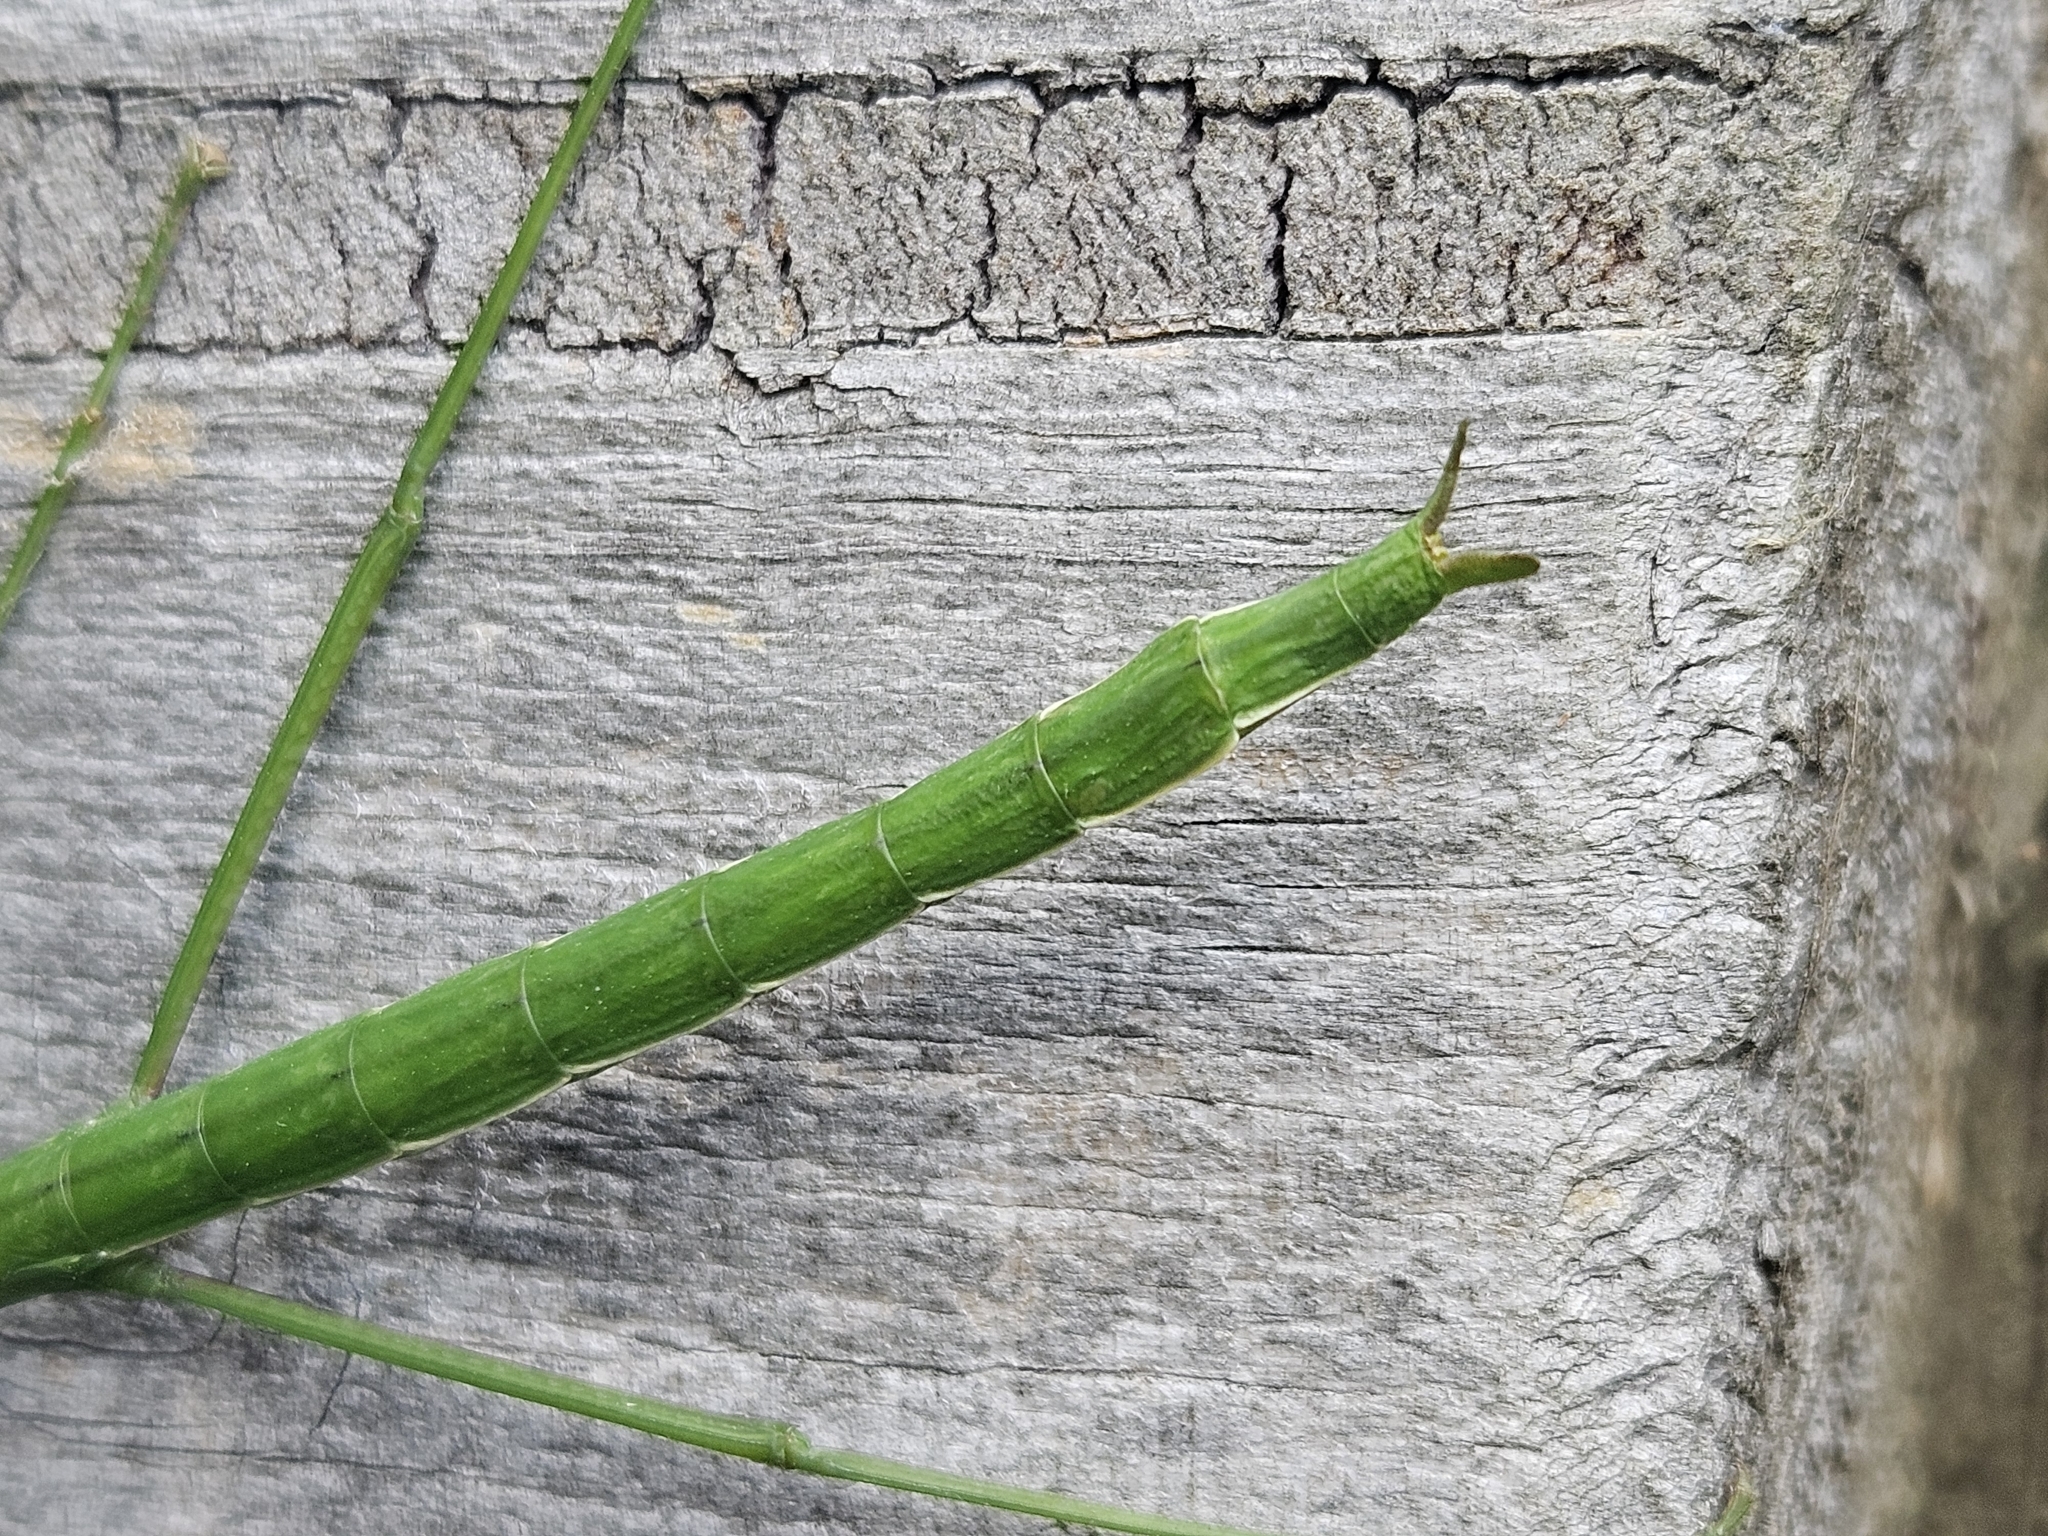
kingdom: Animalia
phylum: Arthropoda
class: Insecta
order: Phasmida
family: Phasmatidae
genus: Clitarchus
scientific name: Clitarchus hookeri
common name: Smooth stick insect
